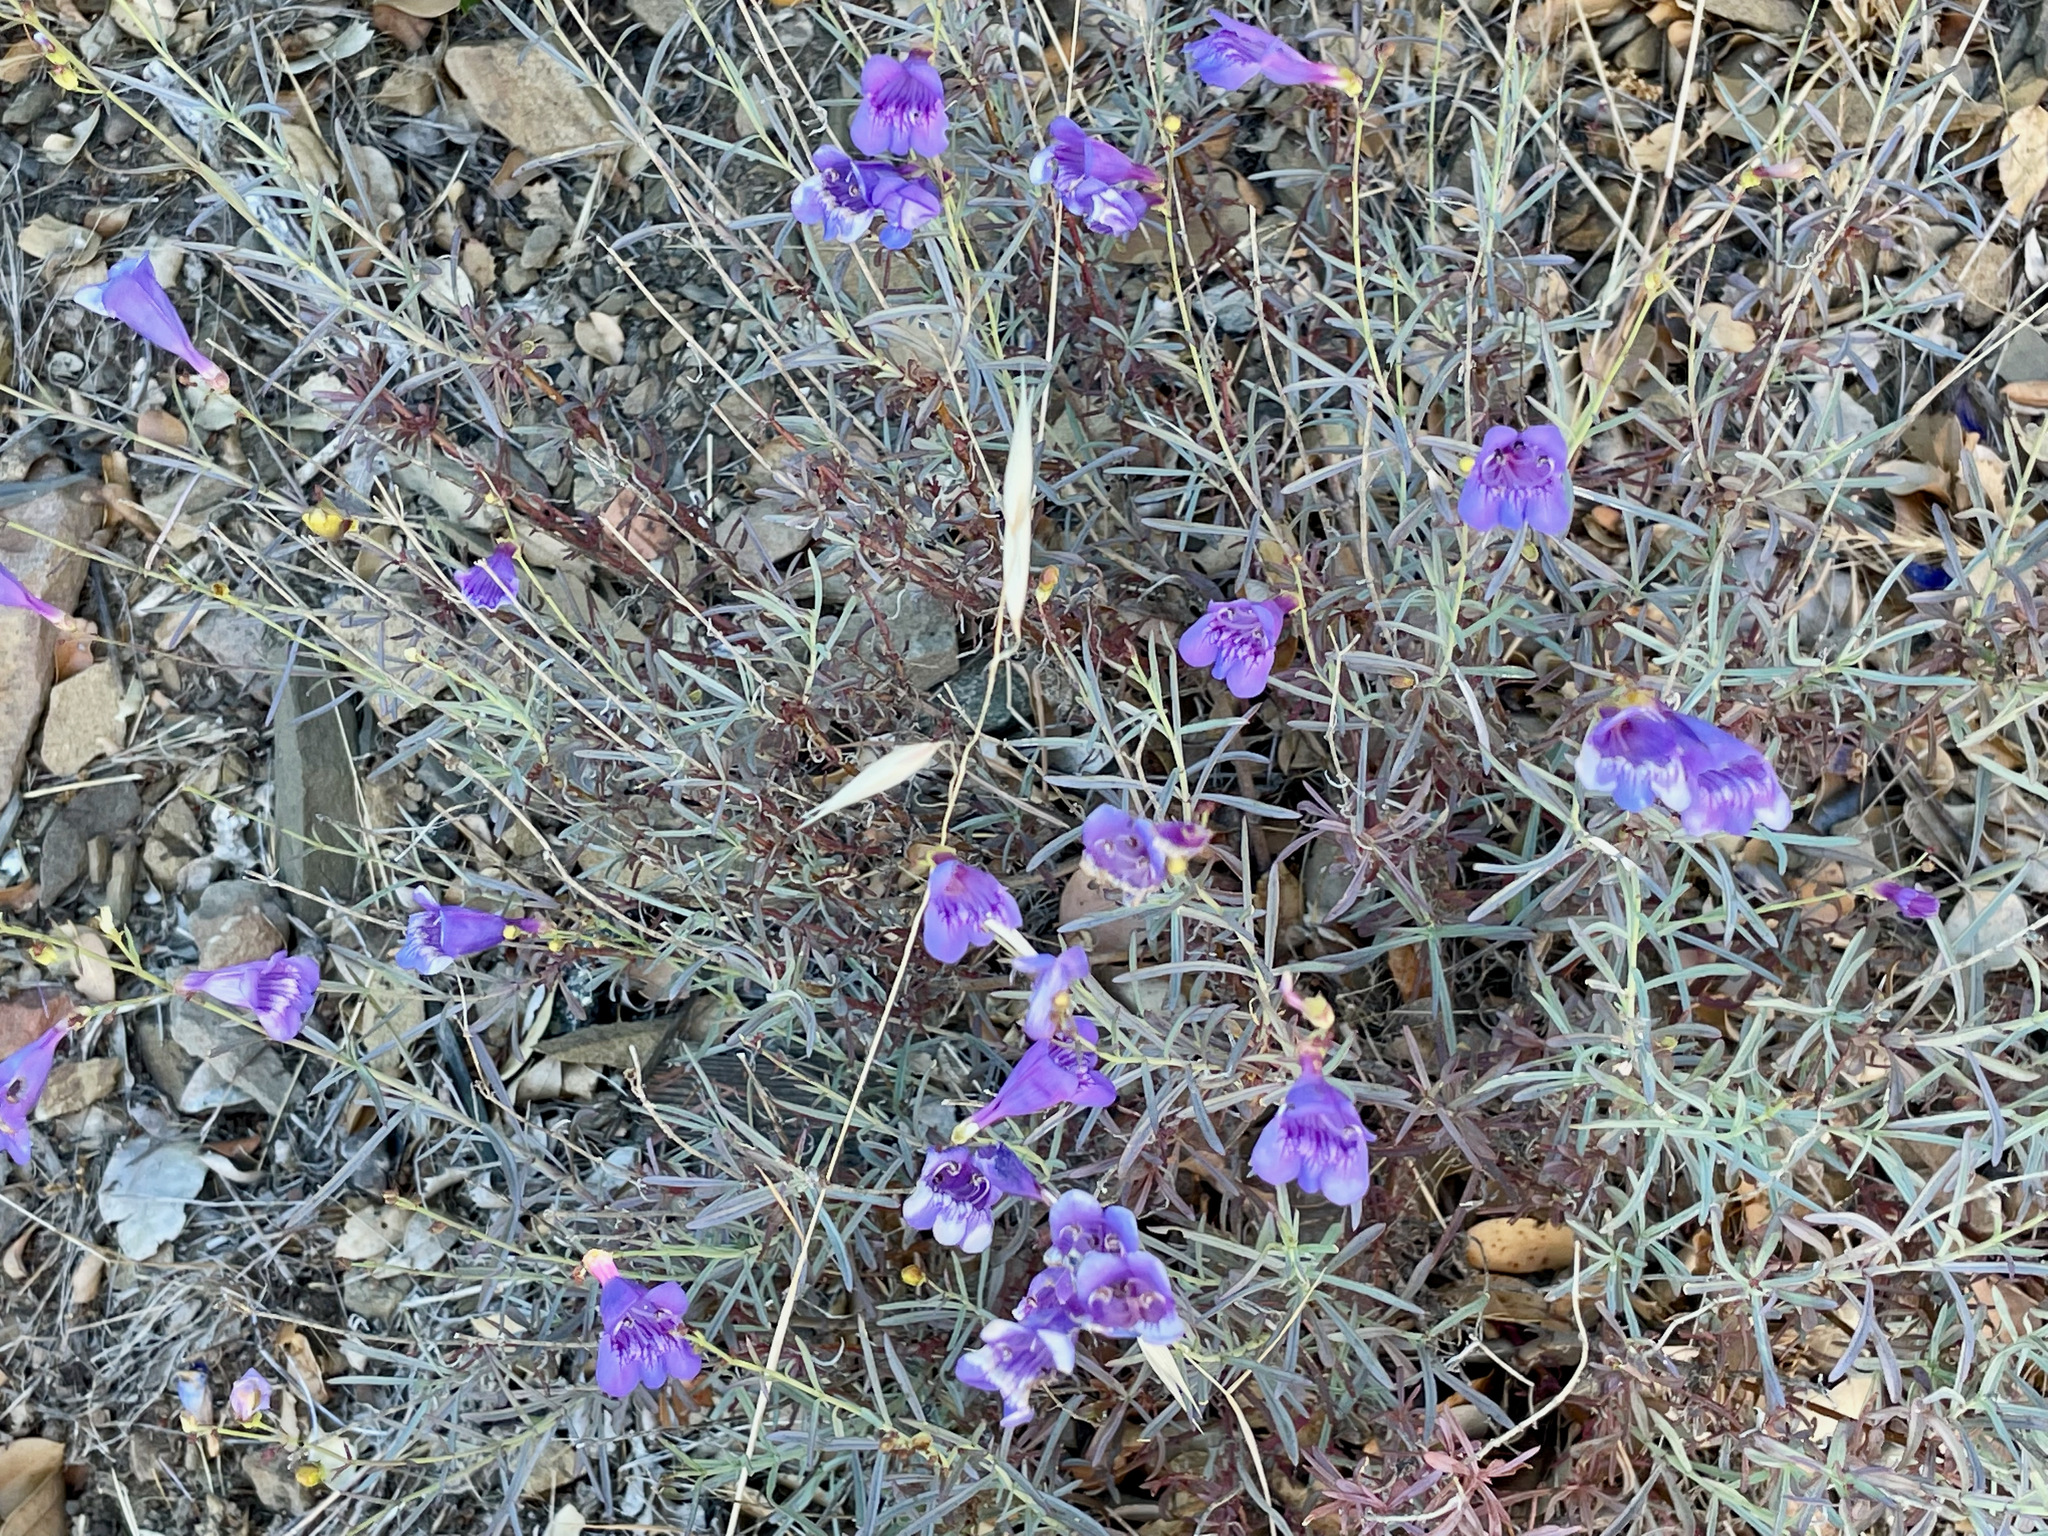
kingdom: Plantae
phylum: Tracheophyta
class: Magnoliopsida
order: Lamiales
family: Plantaginaceae
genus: Penstemon
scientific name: Penstemon heterophyllus
